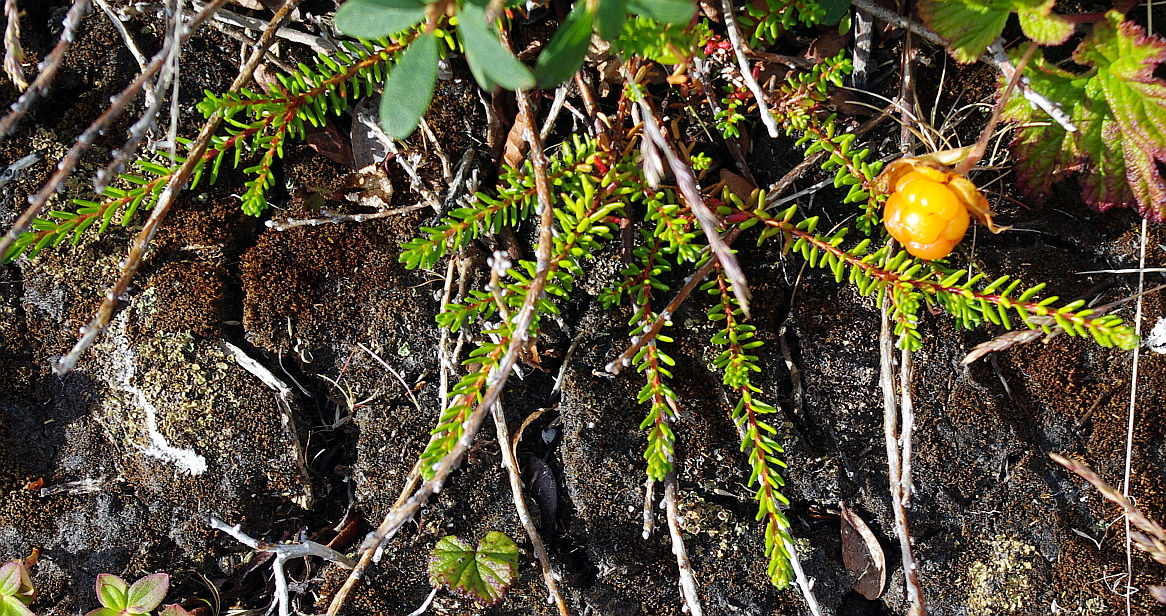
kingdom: Plantae
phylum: Tracheophyta
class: Magnoliopsida
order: Ericales
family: Ericaceae
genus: Empetrum
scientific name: Empetrum nigrum
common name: Black crowberry
